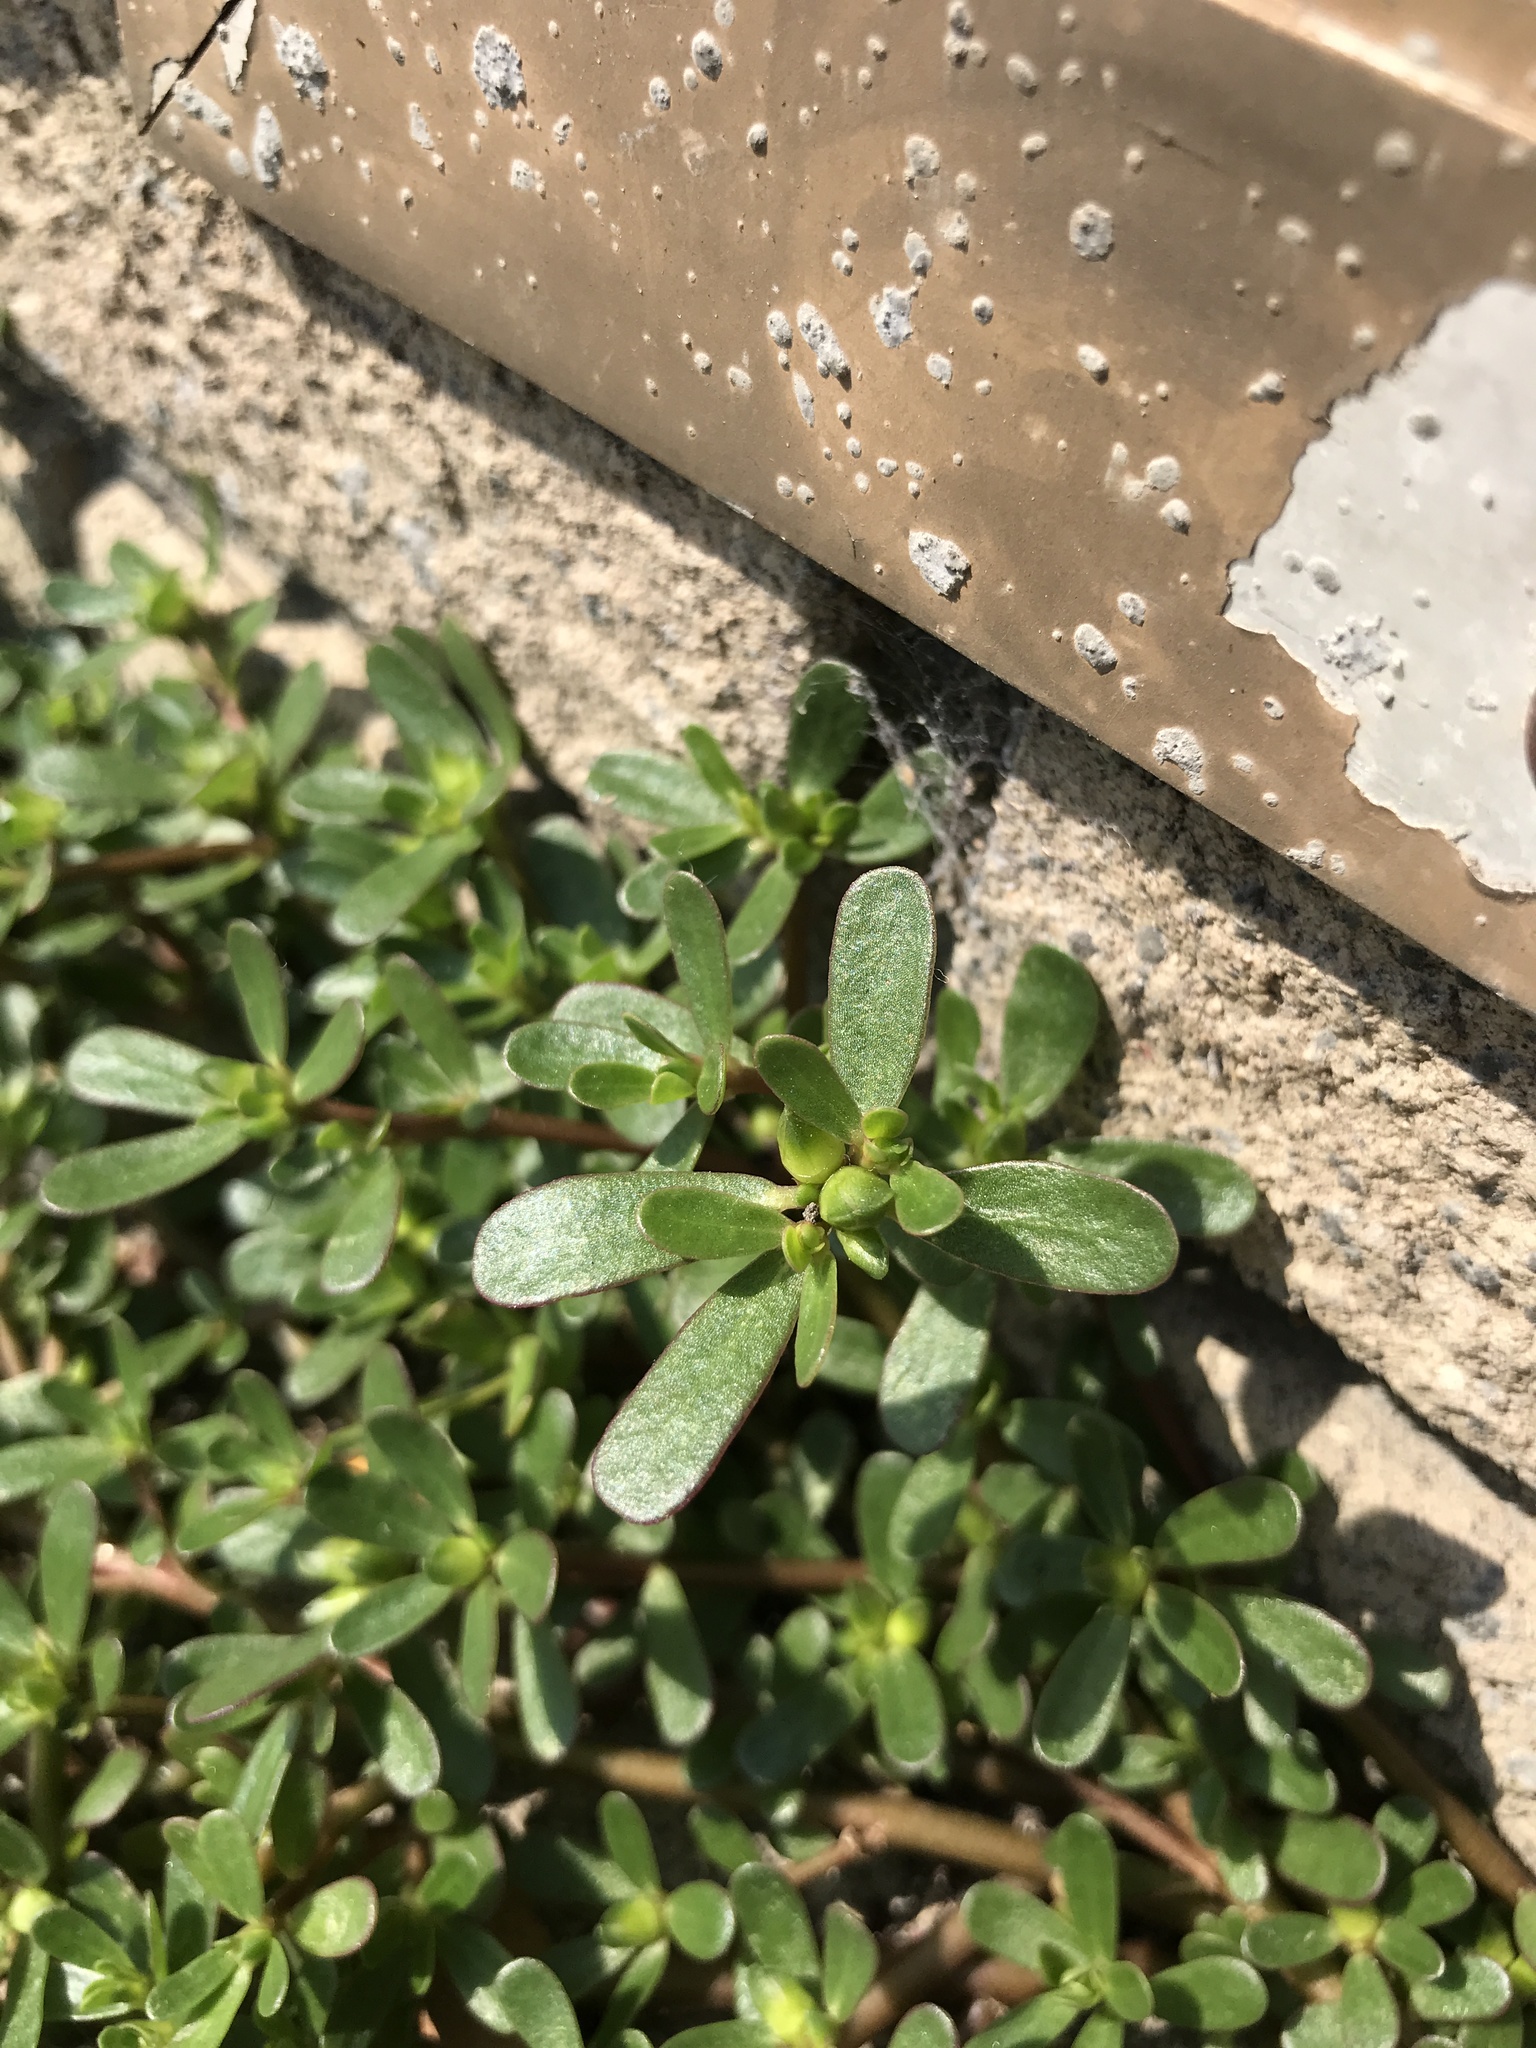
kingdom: Plantae
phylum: Tracheophyta
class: Magnoliopsida
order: Caryophyllales
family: Portulacaceae
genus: Portulaca
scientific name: Portulaca oleracea
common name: Common purslane
